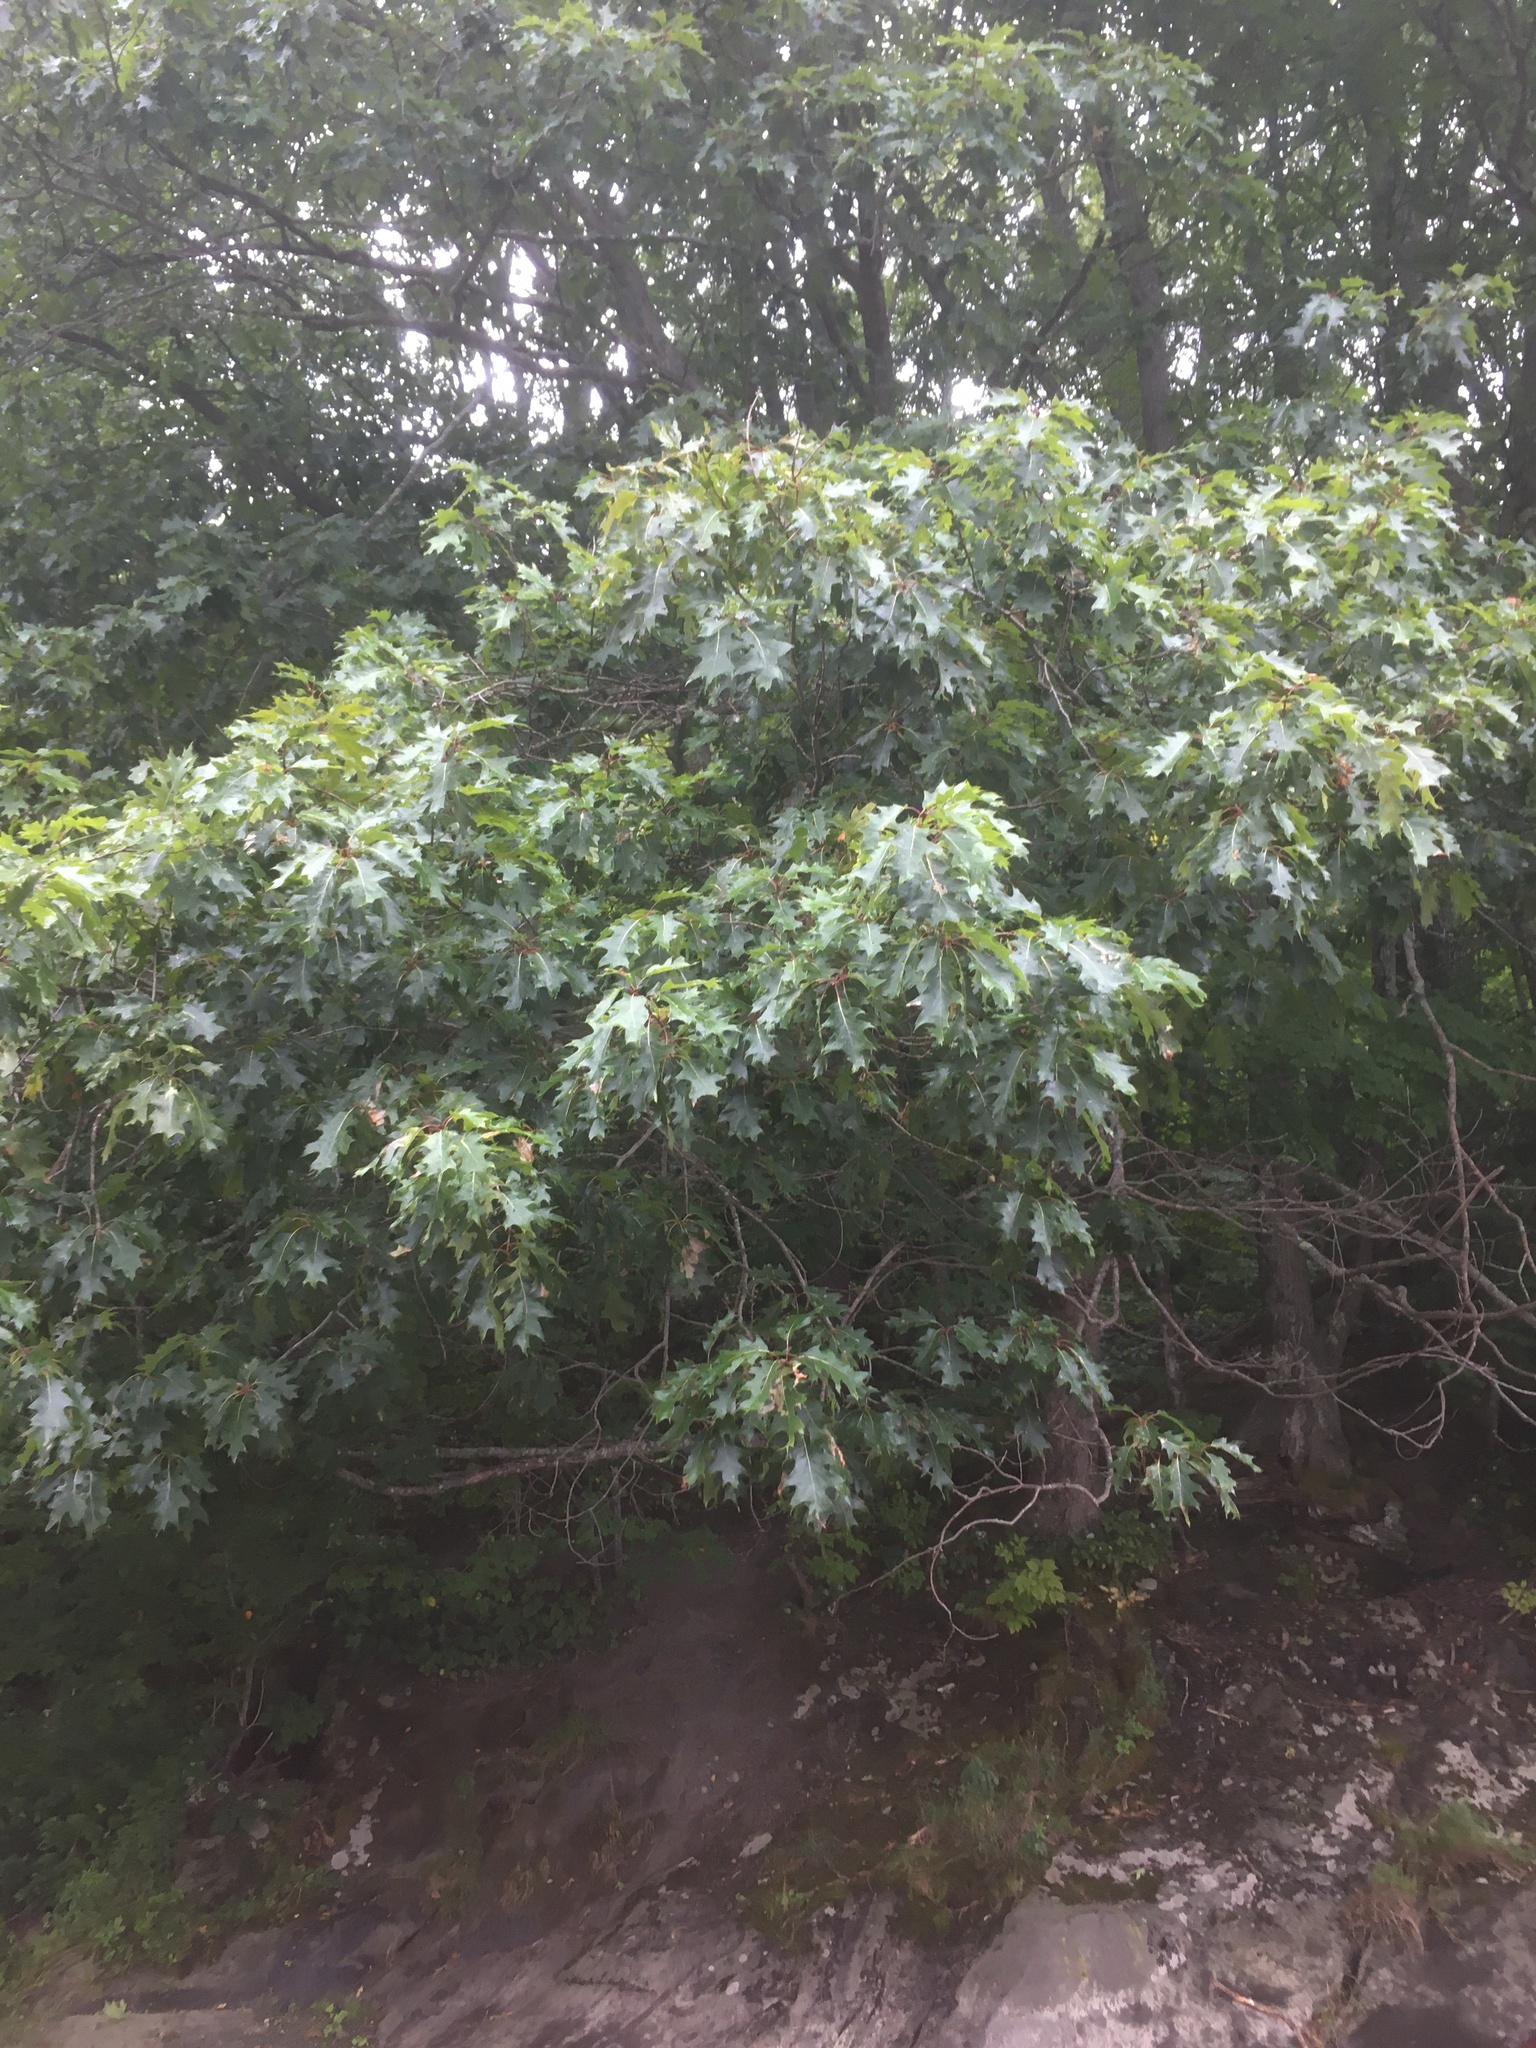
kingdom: Plantae
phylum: Tracheophyta
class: Magnoliopsida
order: Fagales
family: Fagaceae
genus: Quercus
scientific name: Quercus rubra
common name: Red oak
